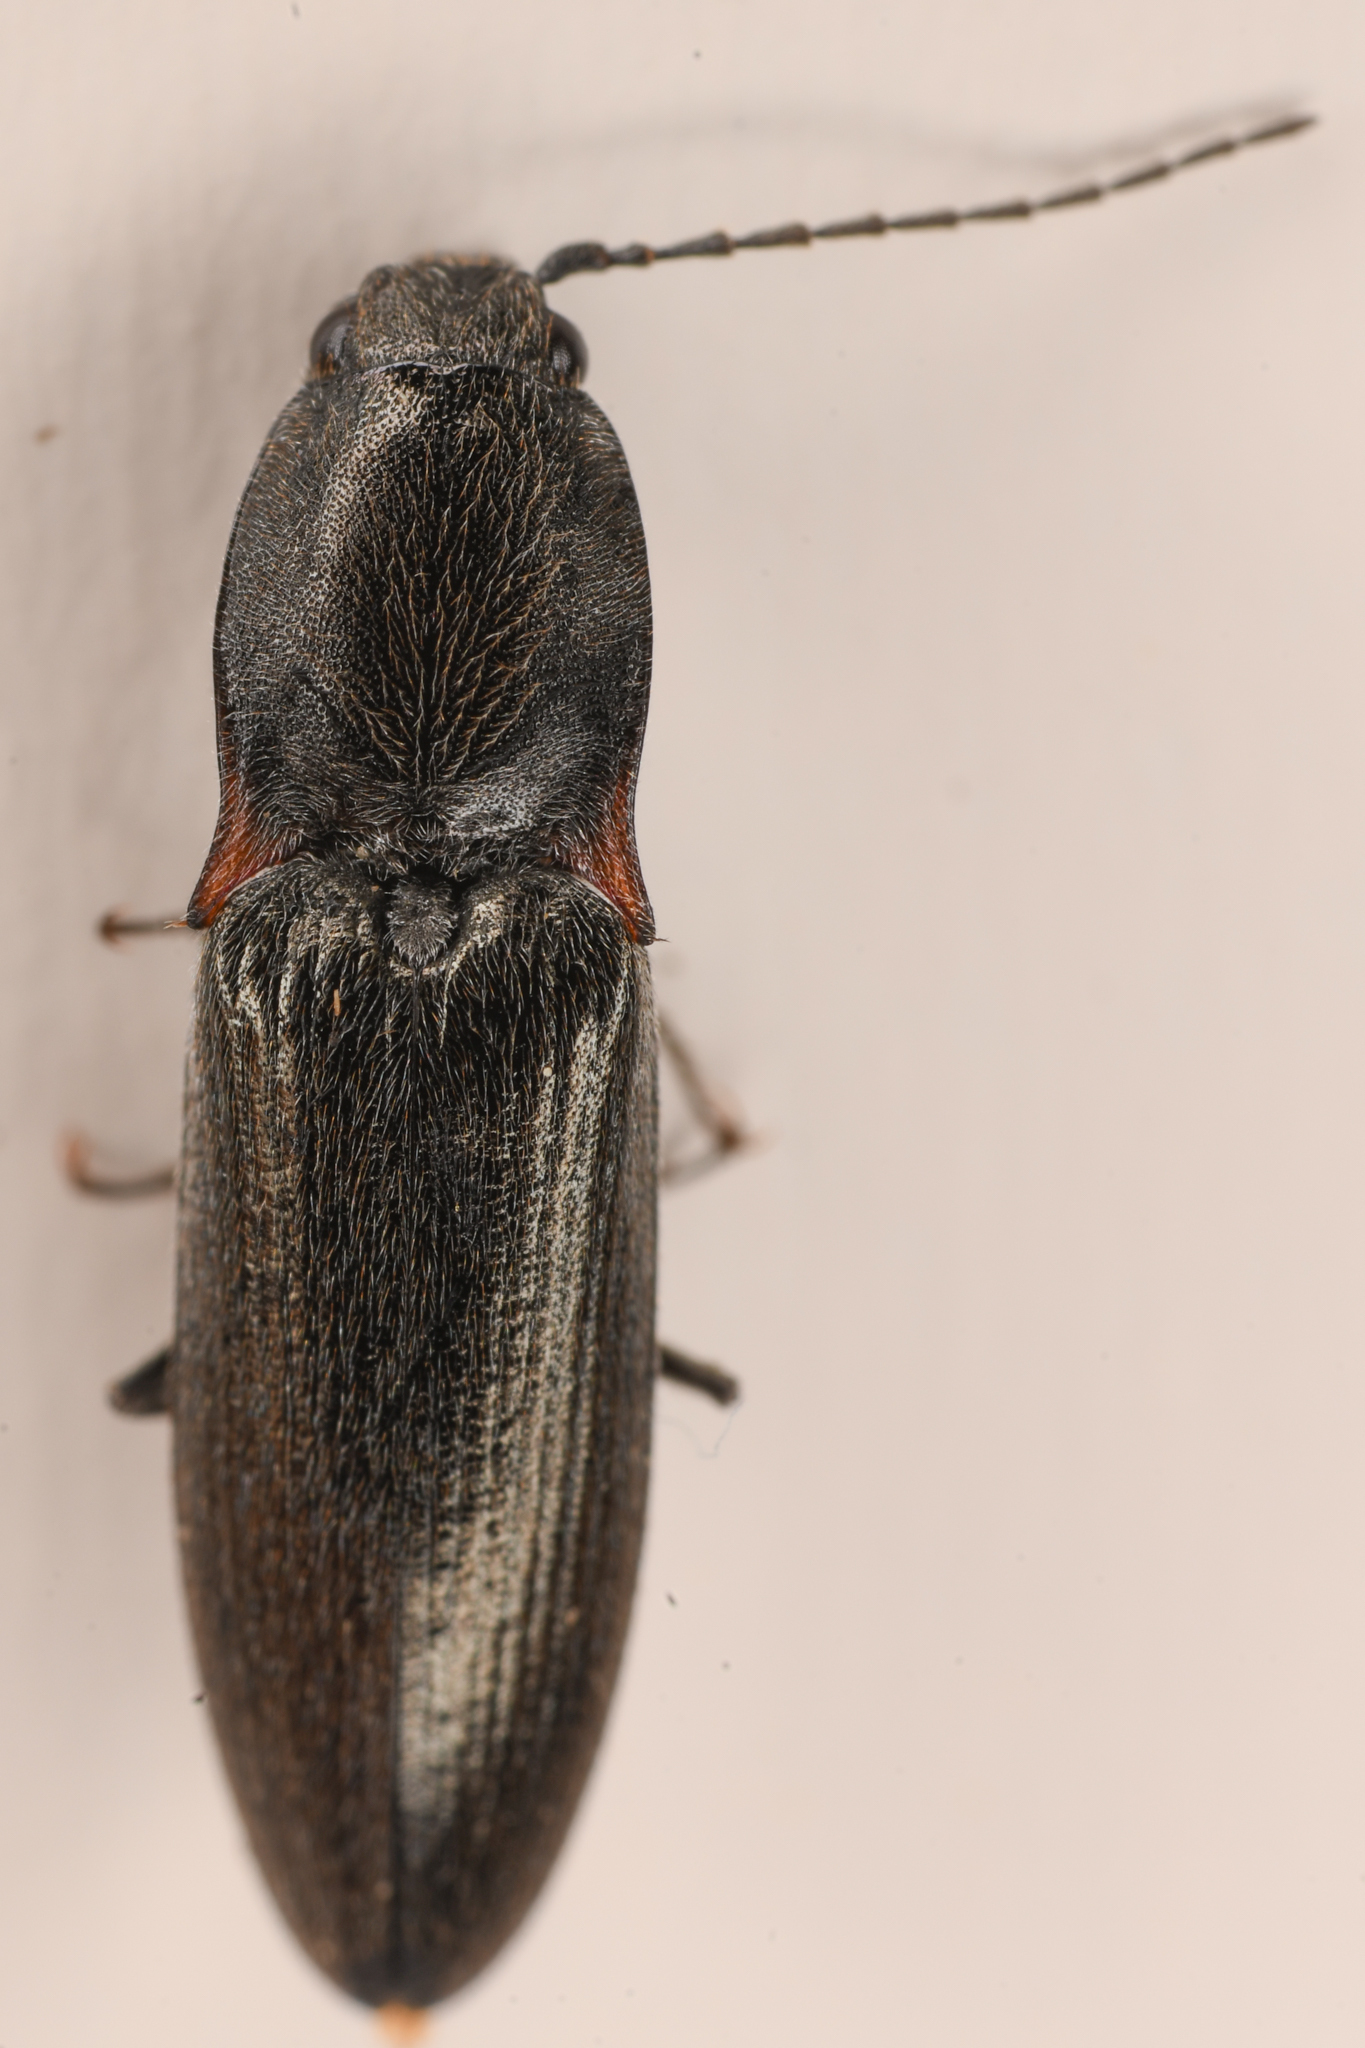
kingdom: Animalia
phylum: Arthropoda
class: Insecta
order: Coleoptera
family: Elateridae
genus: Acteniceromorphus
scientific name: Acteniceromorphus
